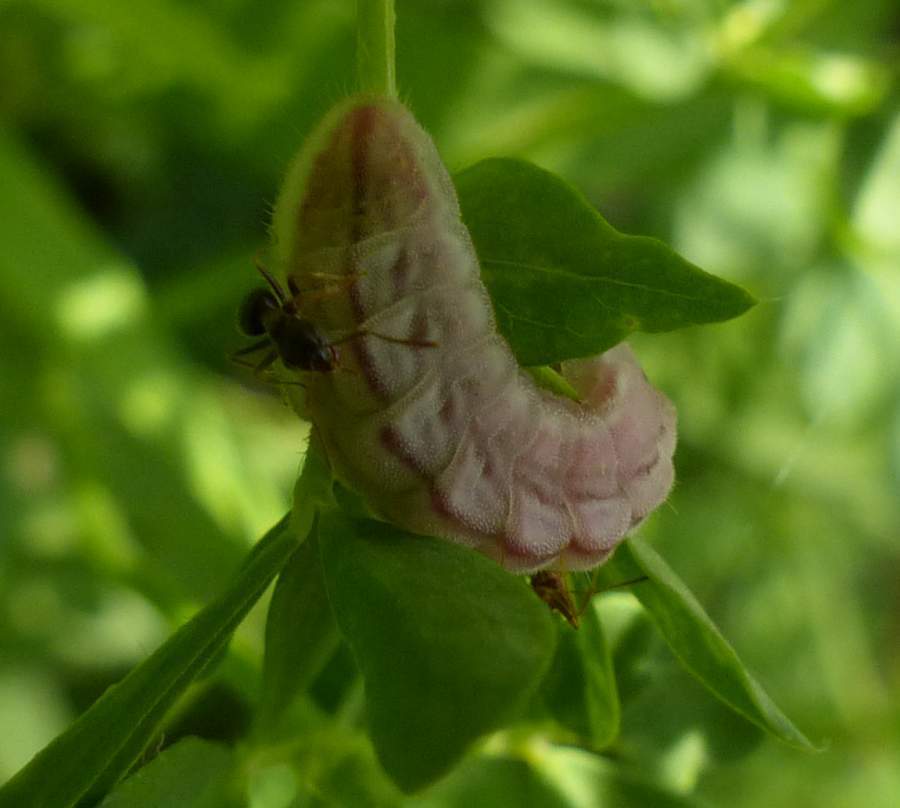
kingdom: Animalia
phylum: Arthropoda
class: Insecta
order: Lepidoptera
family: Lycaenidae
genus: Glaucopsyche
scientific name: Glaucopsyche lygdamus
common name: Silvery blue
